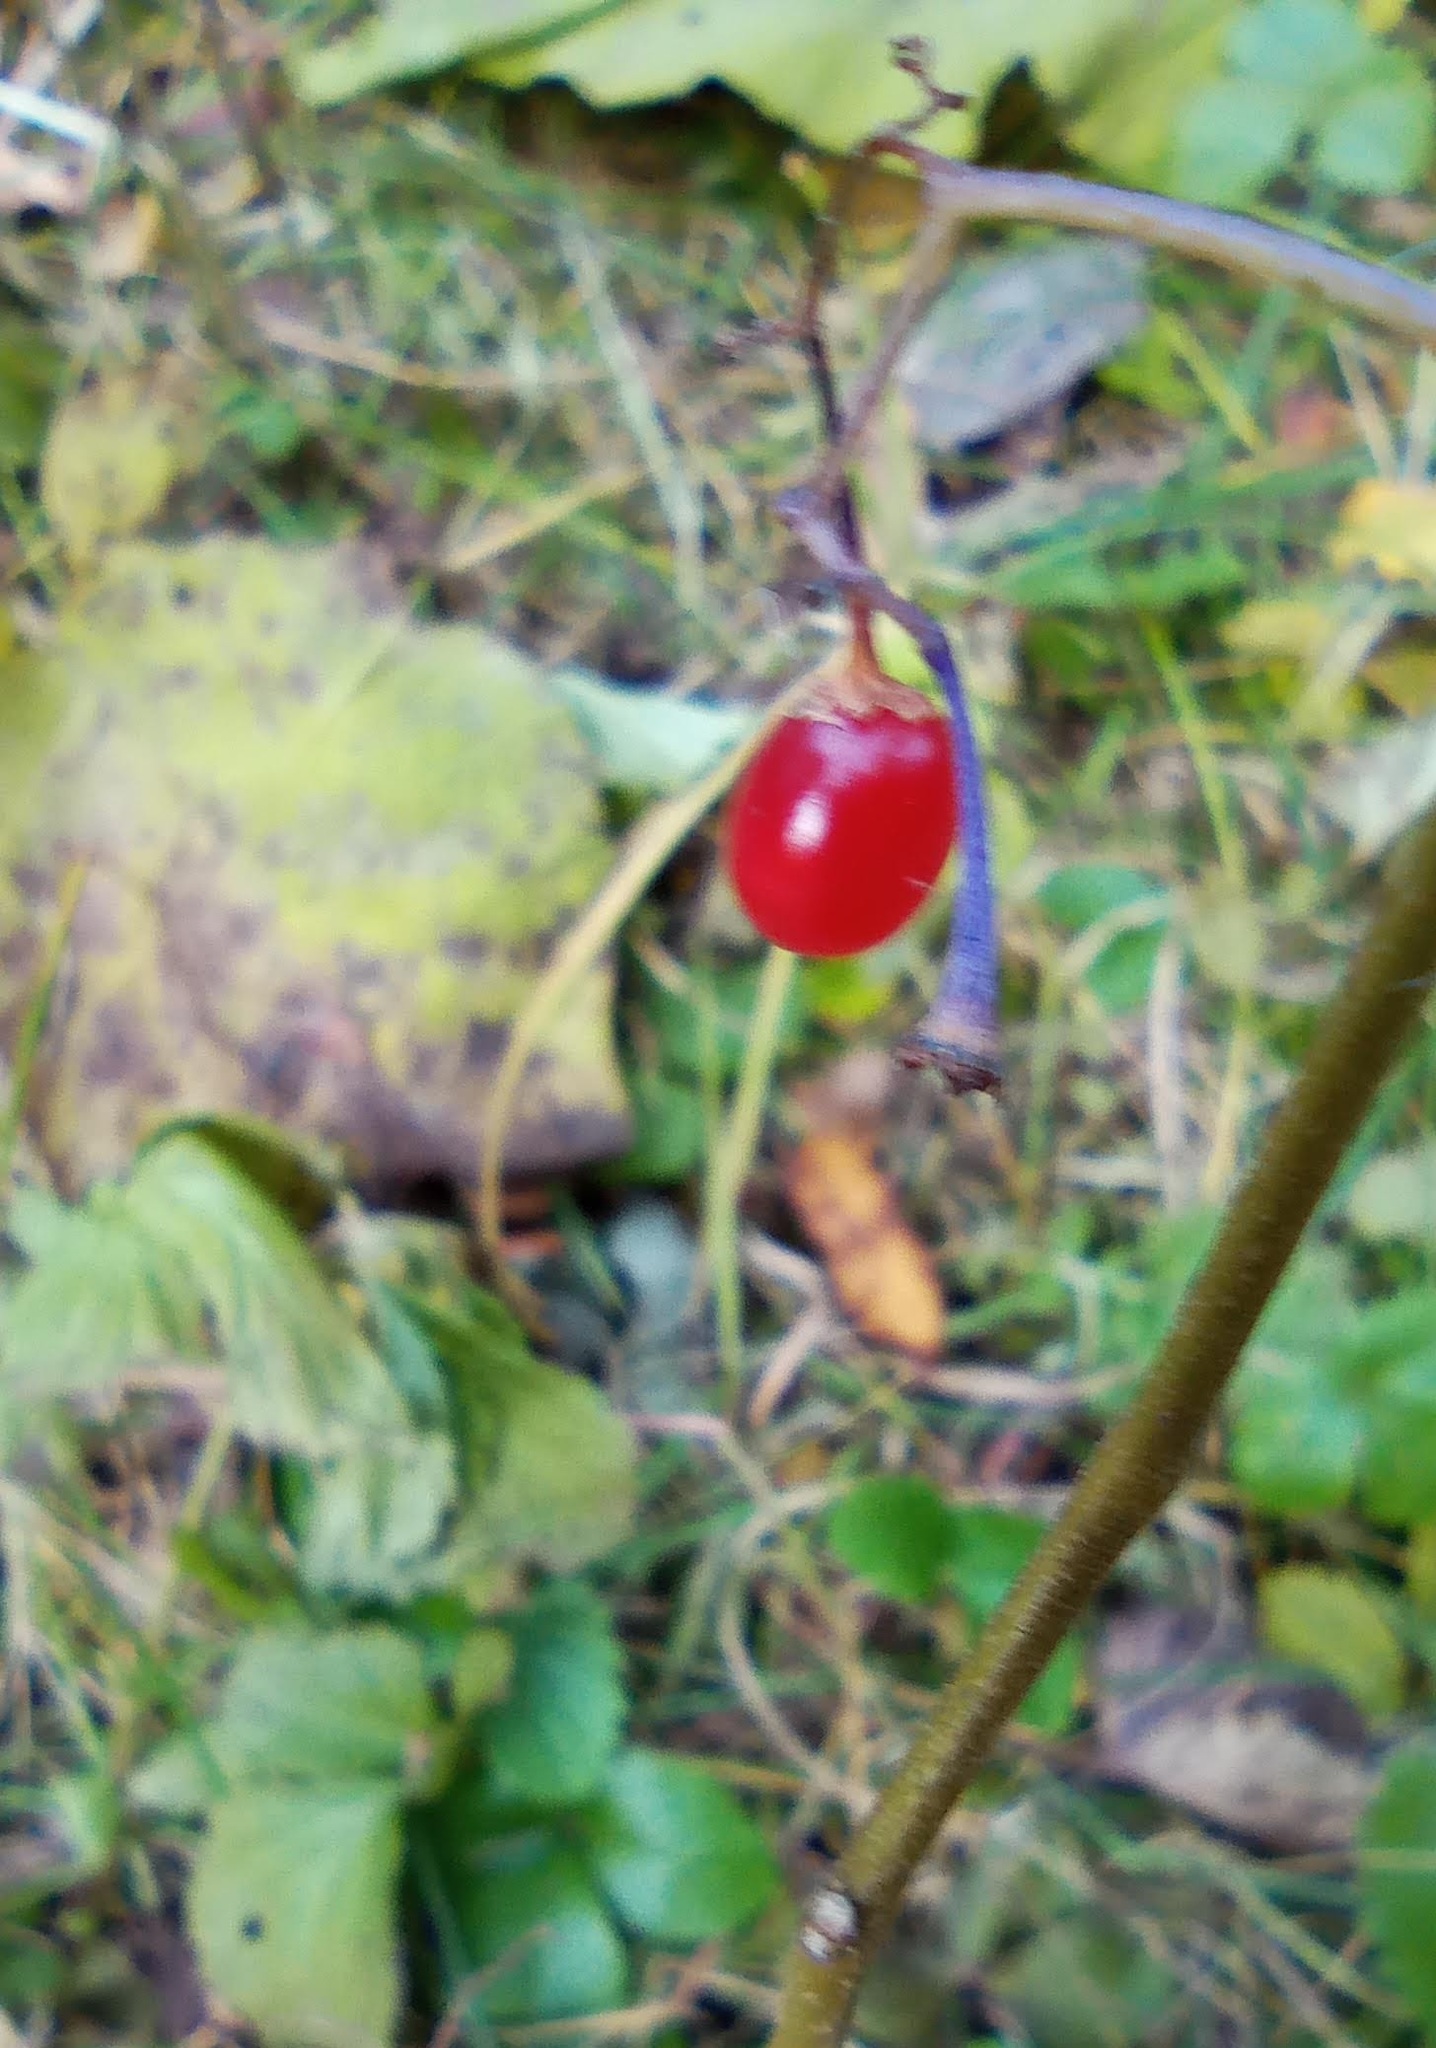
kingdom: Plantae
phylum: Tracheophyta
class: Magnoliopsida
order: Solanales
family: Solanaceae
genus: Solanum
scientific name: Solanum dulcamara
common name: Climbing nightshade
